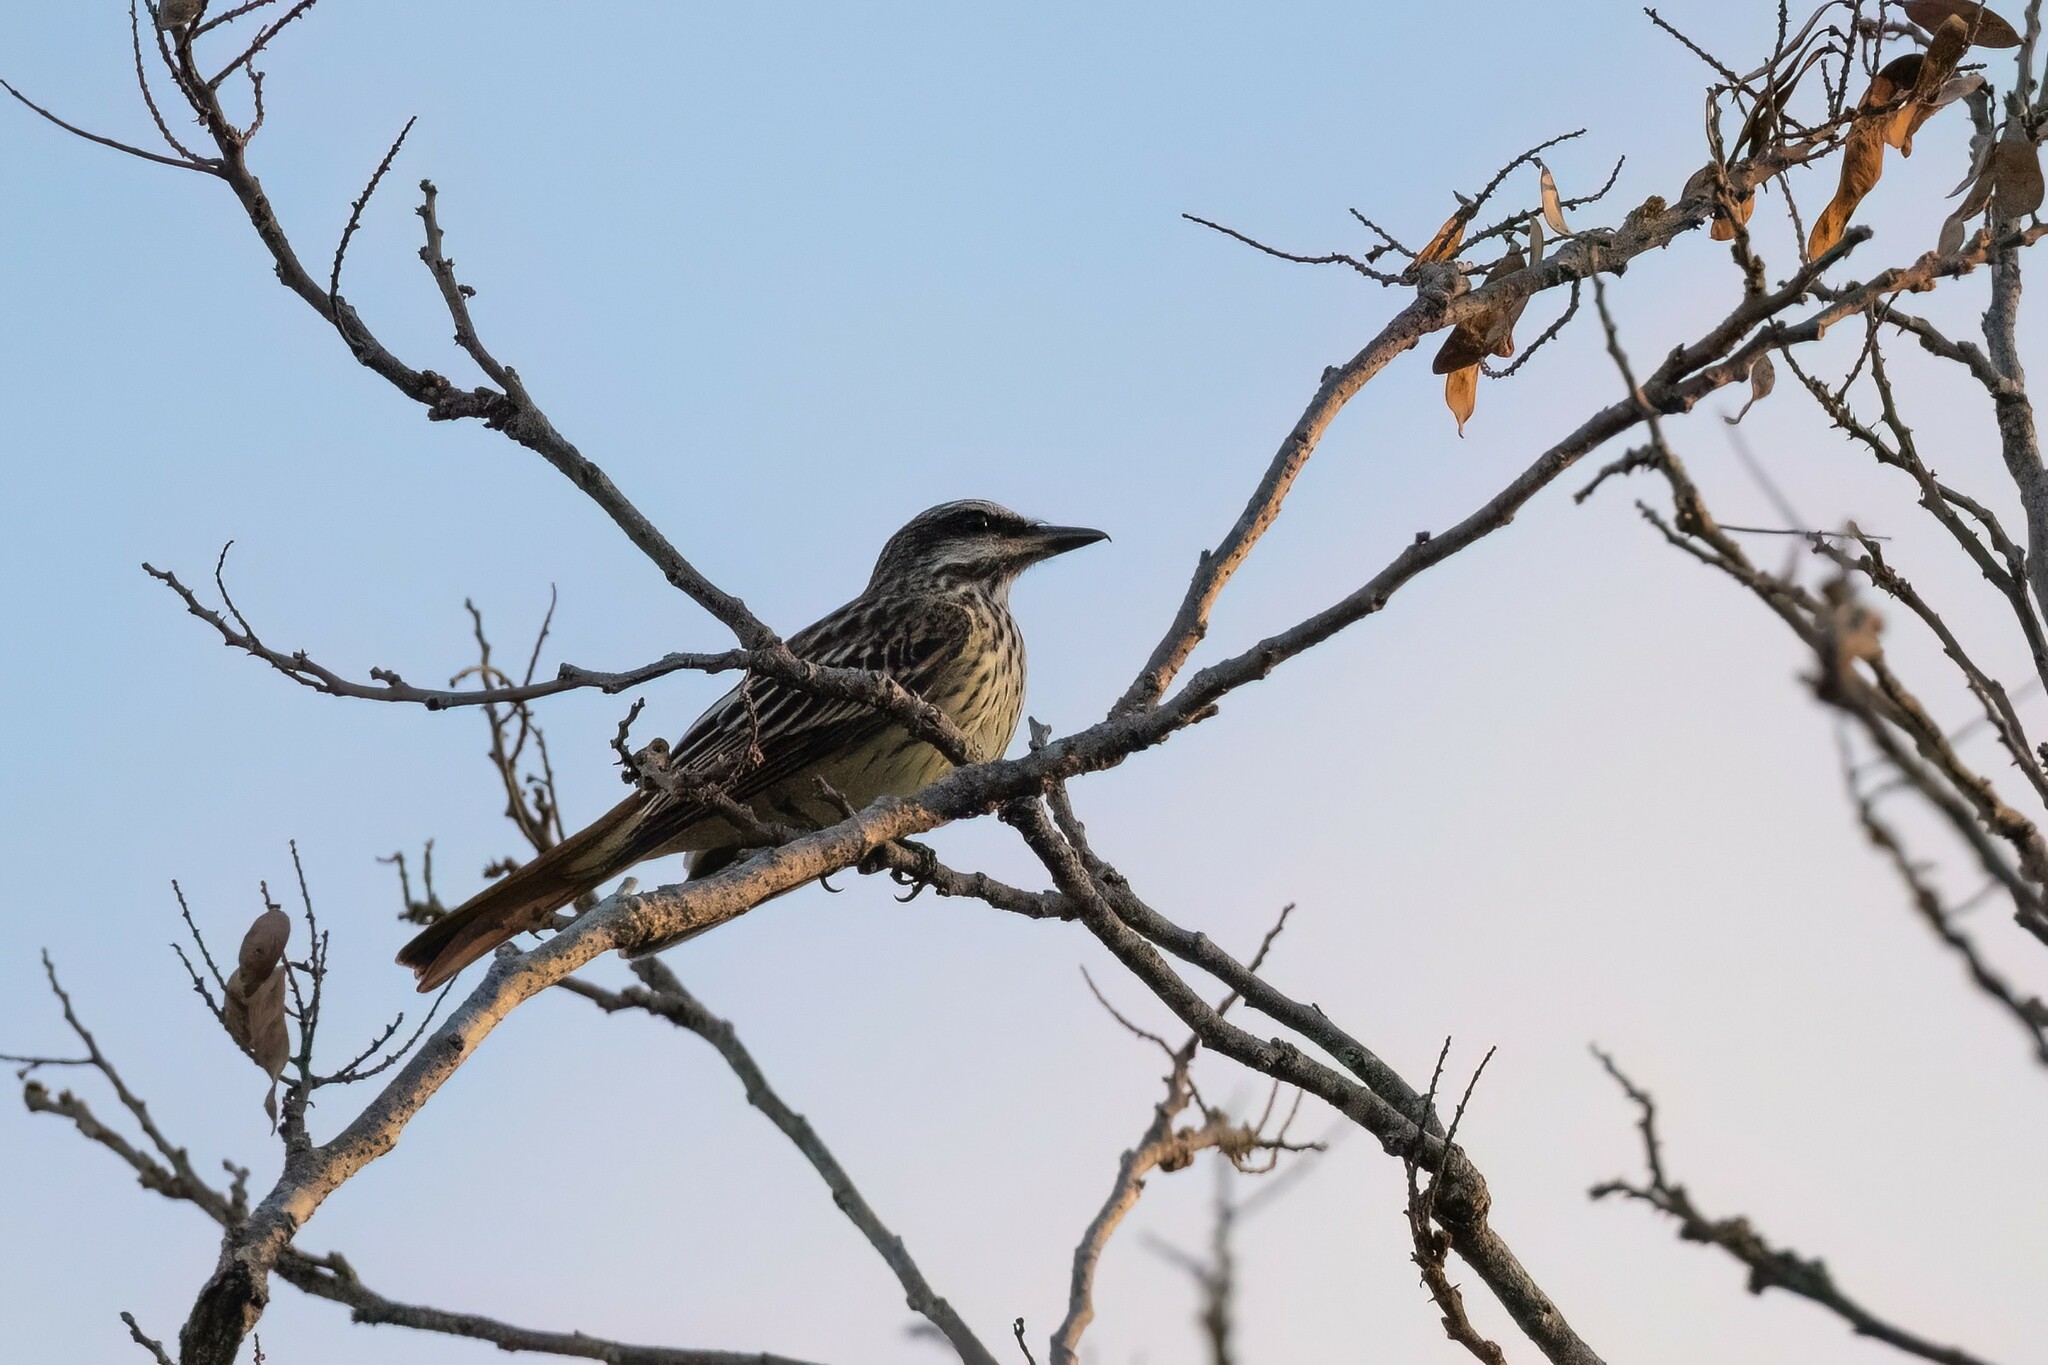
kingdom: Animalia
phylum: Chordata
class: Aves
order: Passeriformes
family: Tyrannidae
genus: Myiodynastes
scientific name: Myiodynastes luteiventris
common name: Sulphur-bellied flycatcher
